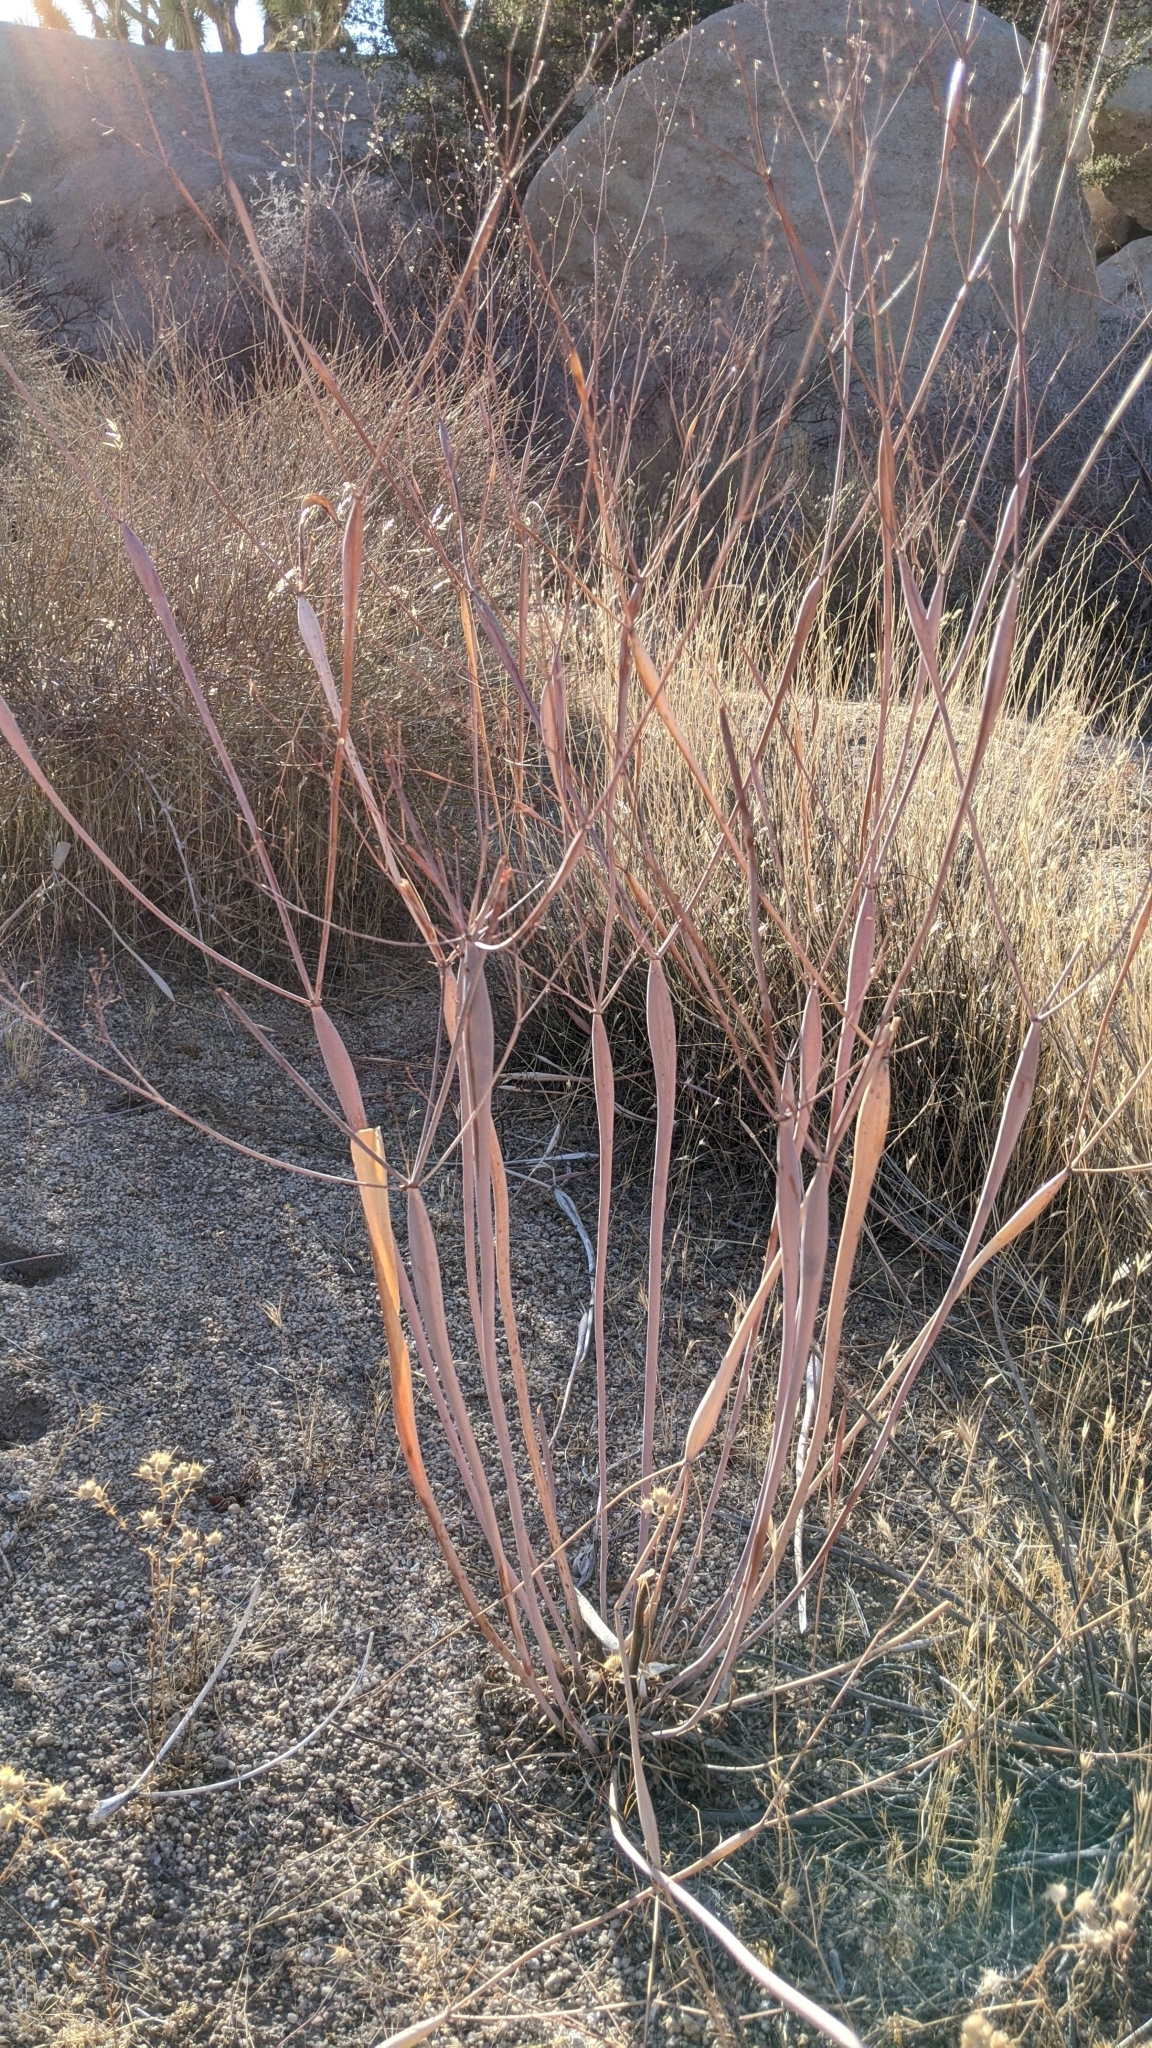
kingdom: Plantae
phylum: Tracheophyta
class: Magnoliopsida
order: Caryophyllales
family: Polygonaceae
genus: Eriogonum
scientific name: Eriogonum inflatum
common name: Desert trumpet
